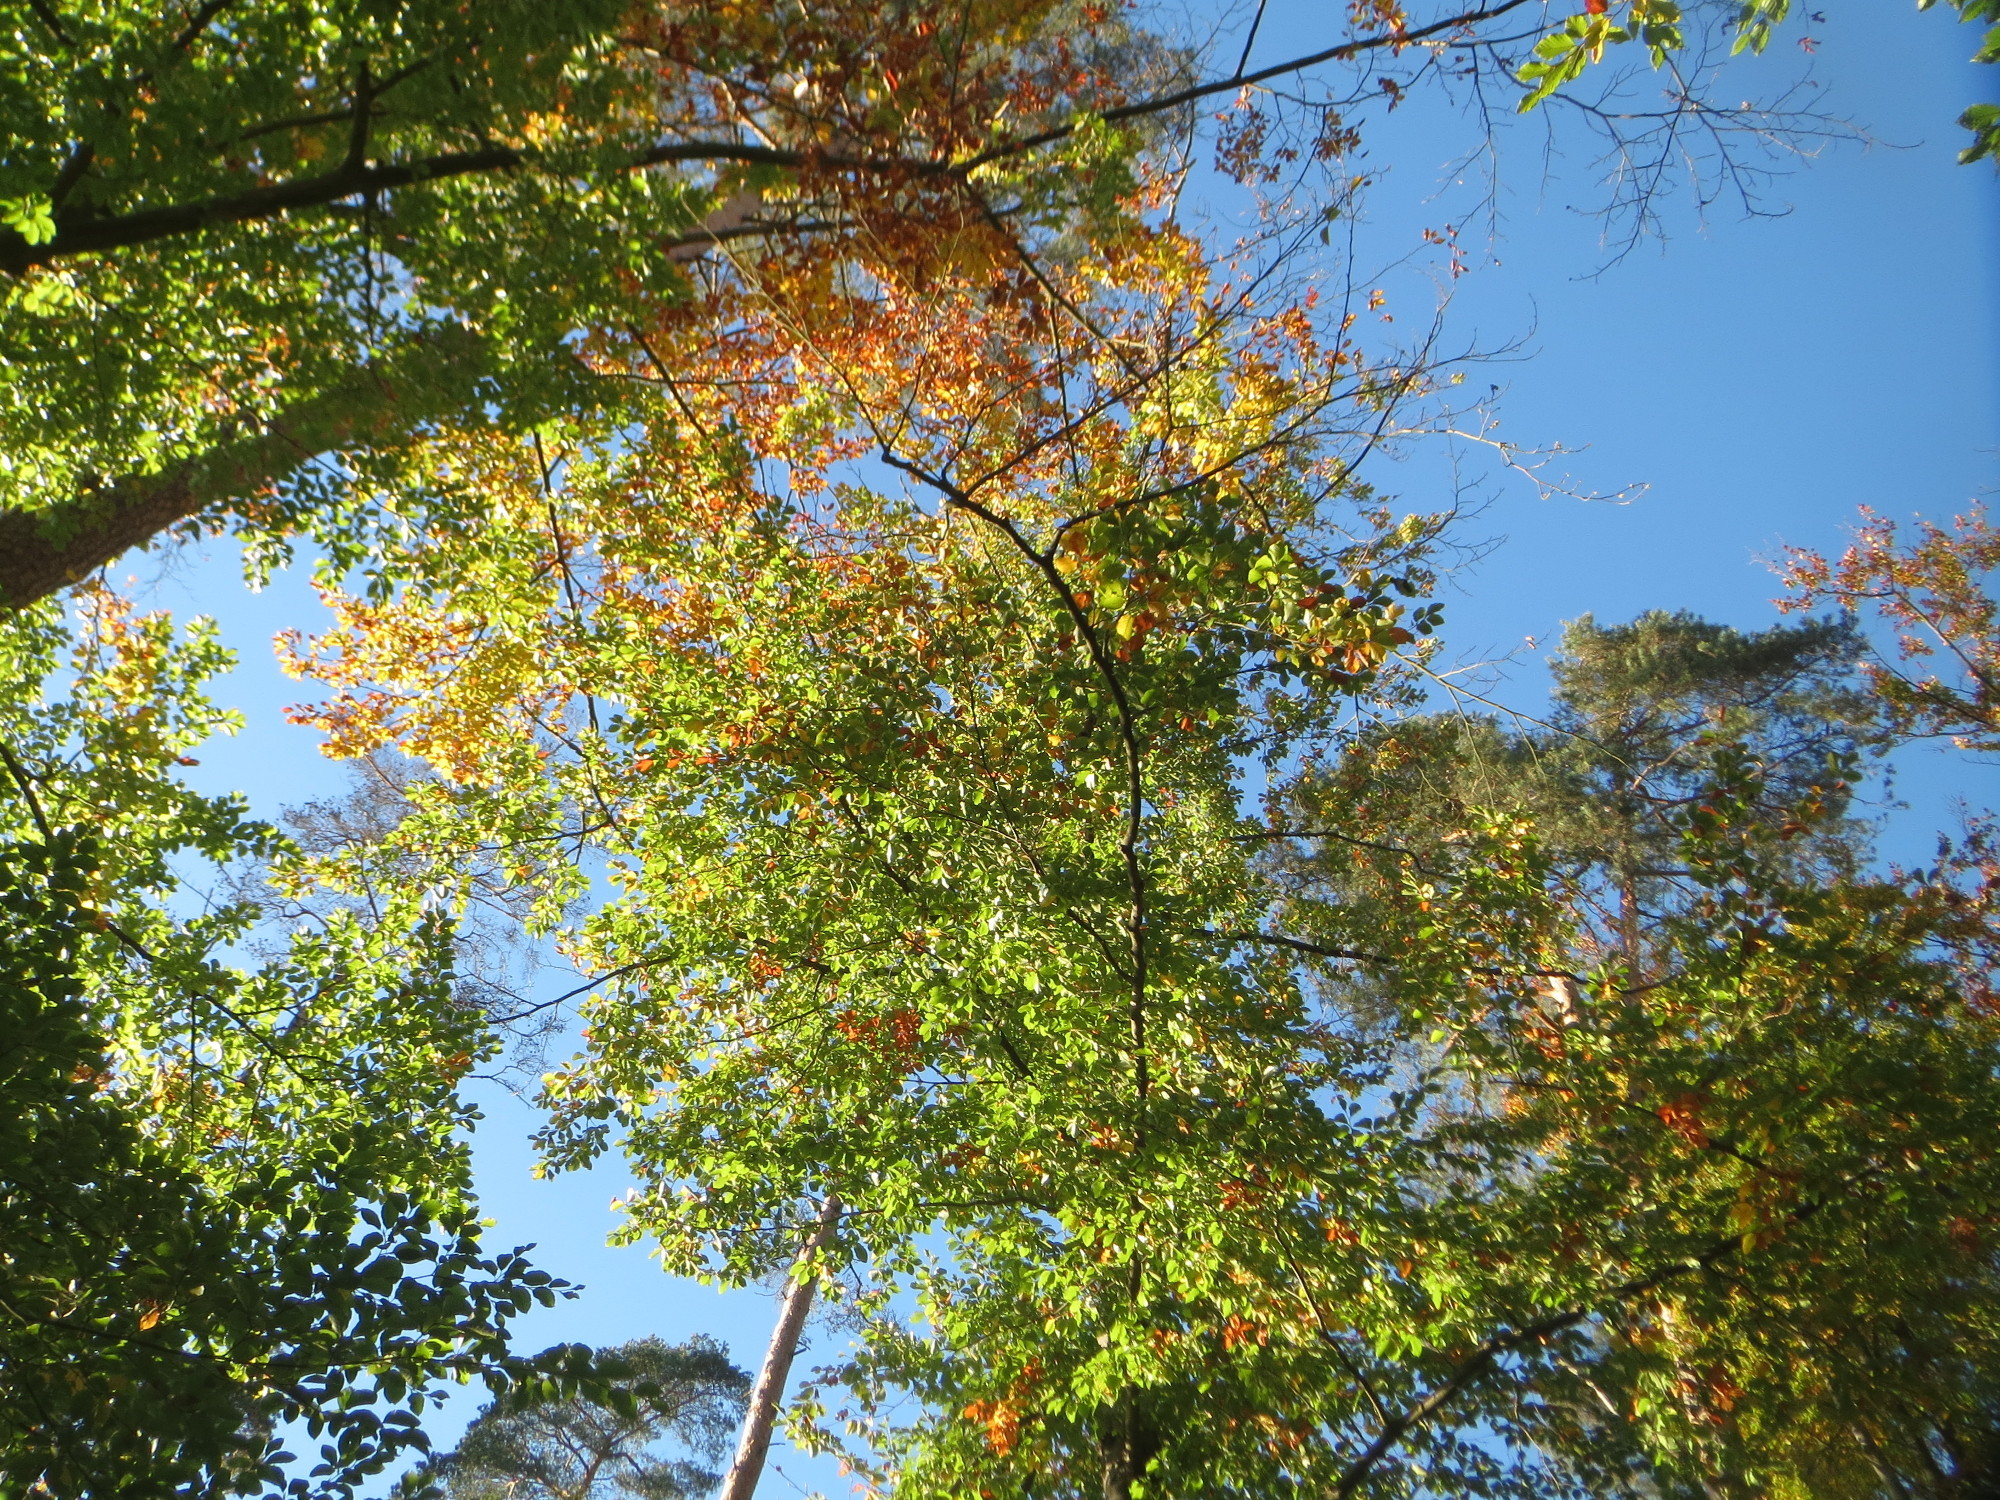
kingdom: Plantae
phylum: Tracheophyta
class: Magnoliopsida
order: Fagales
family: Fagaceae
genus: Fagus
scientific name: Fagus sylvatica
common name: Beech
